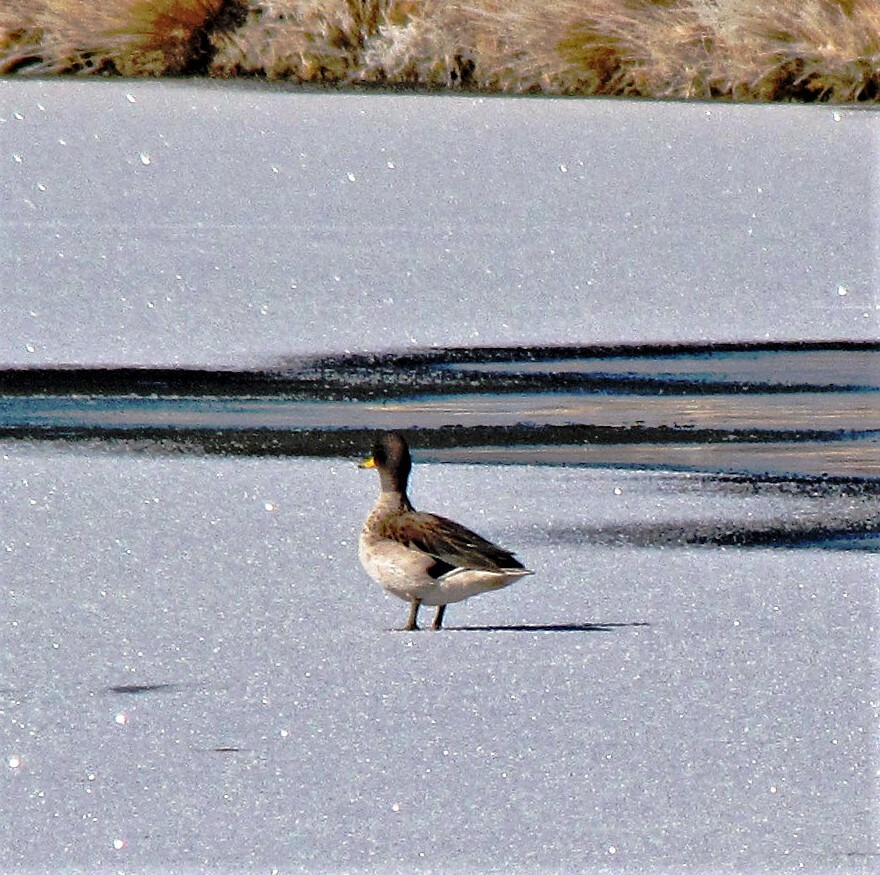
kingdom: Animalia
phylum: Chordata
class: Aves
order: Anseriformes
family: Anatidae
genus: Anas
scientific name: Anas flavirostris
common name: Yellow-billed teal
